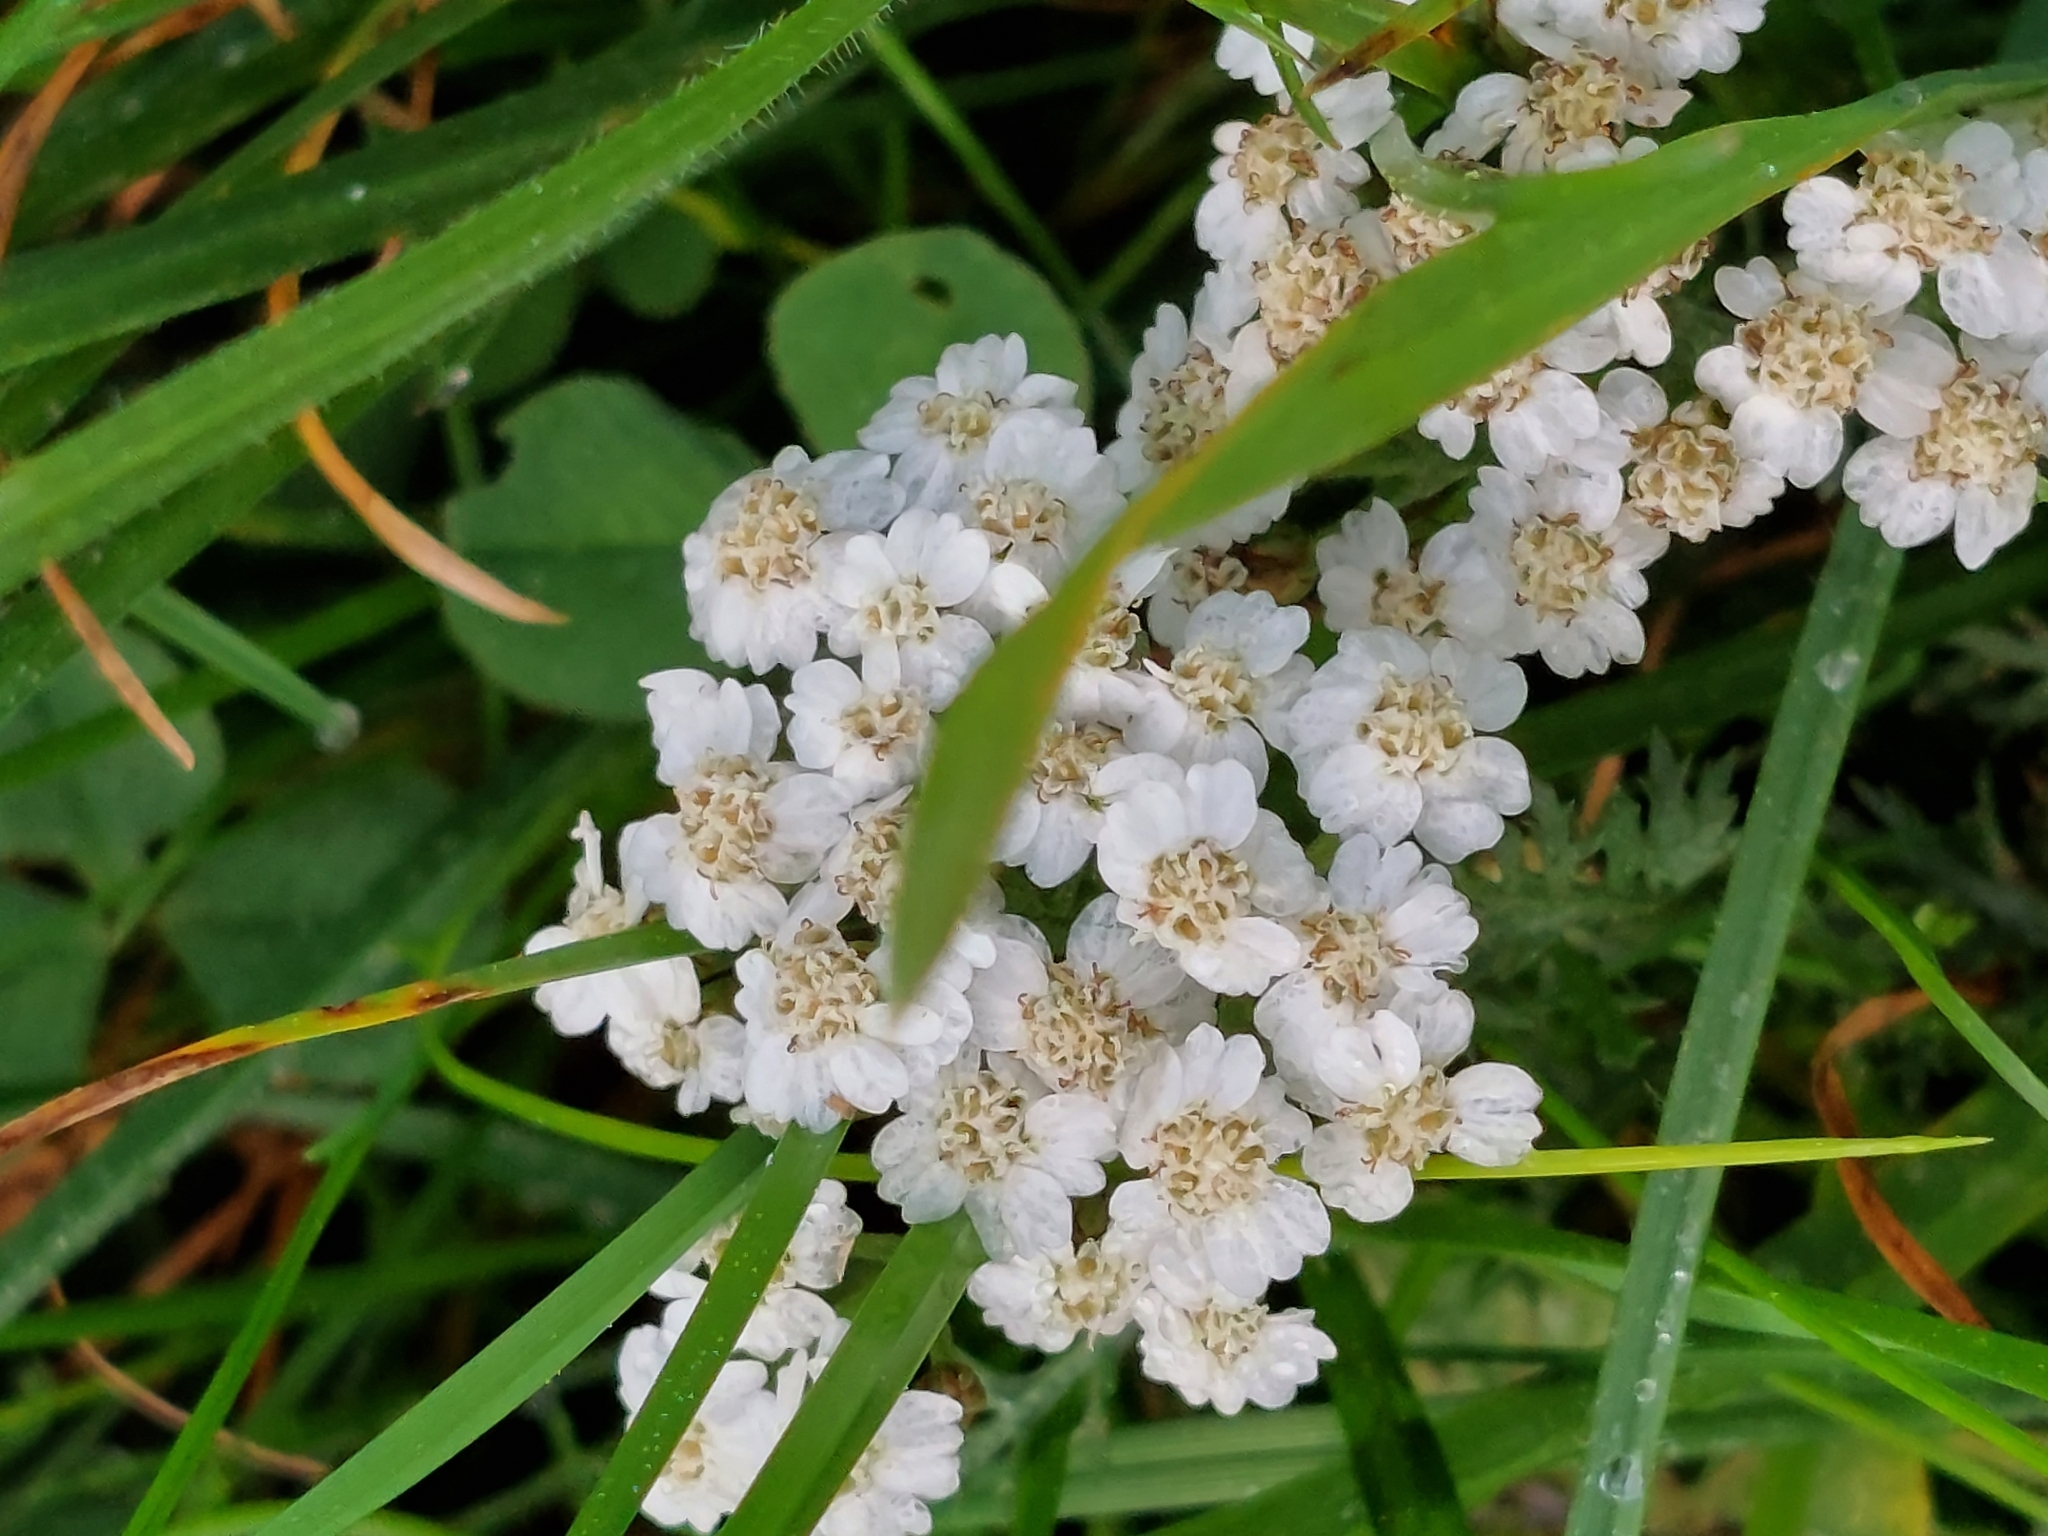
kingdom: Plantae
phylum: Tracheophyta
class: Magnoliopsida
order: Asterales
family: Asteraceae
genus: Achillea
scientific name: Achillea millefolium
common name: Yarrow
